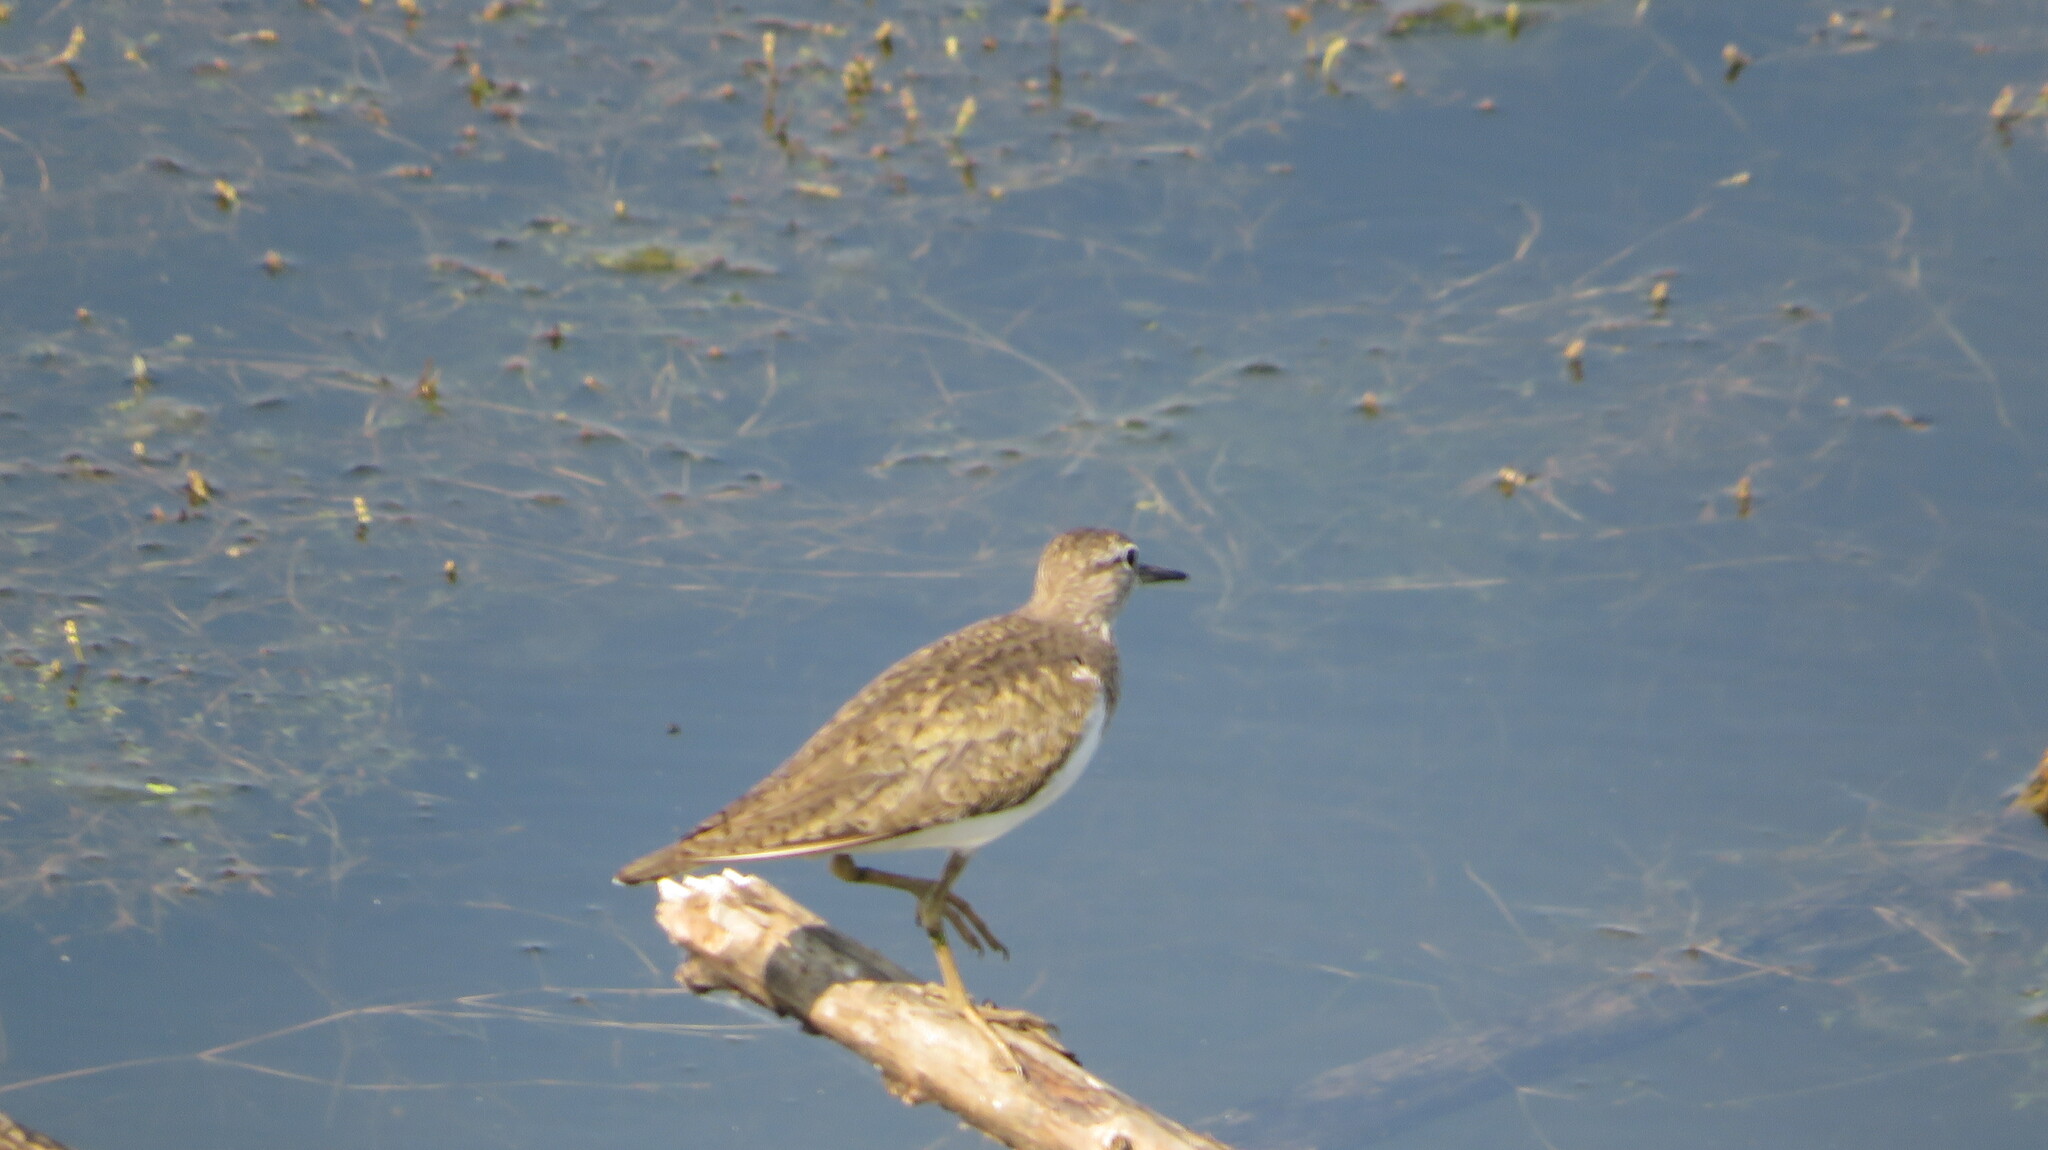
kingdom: Animalia
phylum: Chordata
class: Aves
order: Charadriiformes
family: Scolopacidae
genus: Actitis
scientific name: Actitis hypoleucos
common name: Common sandpiper
